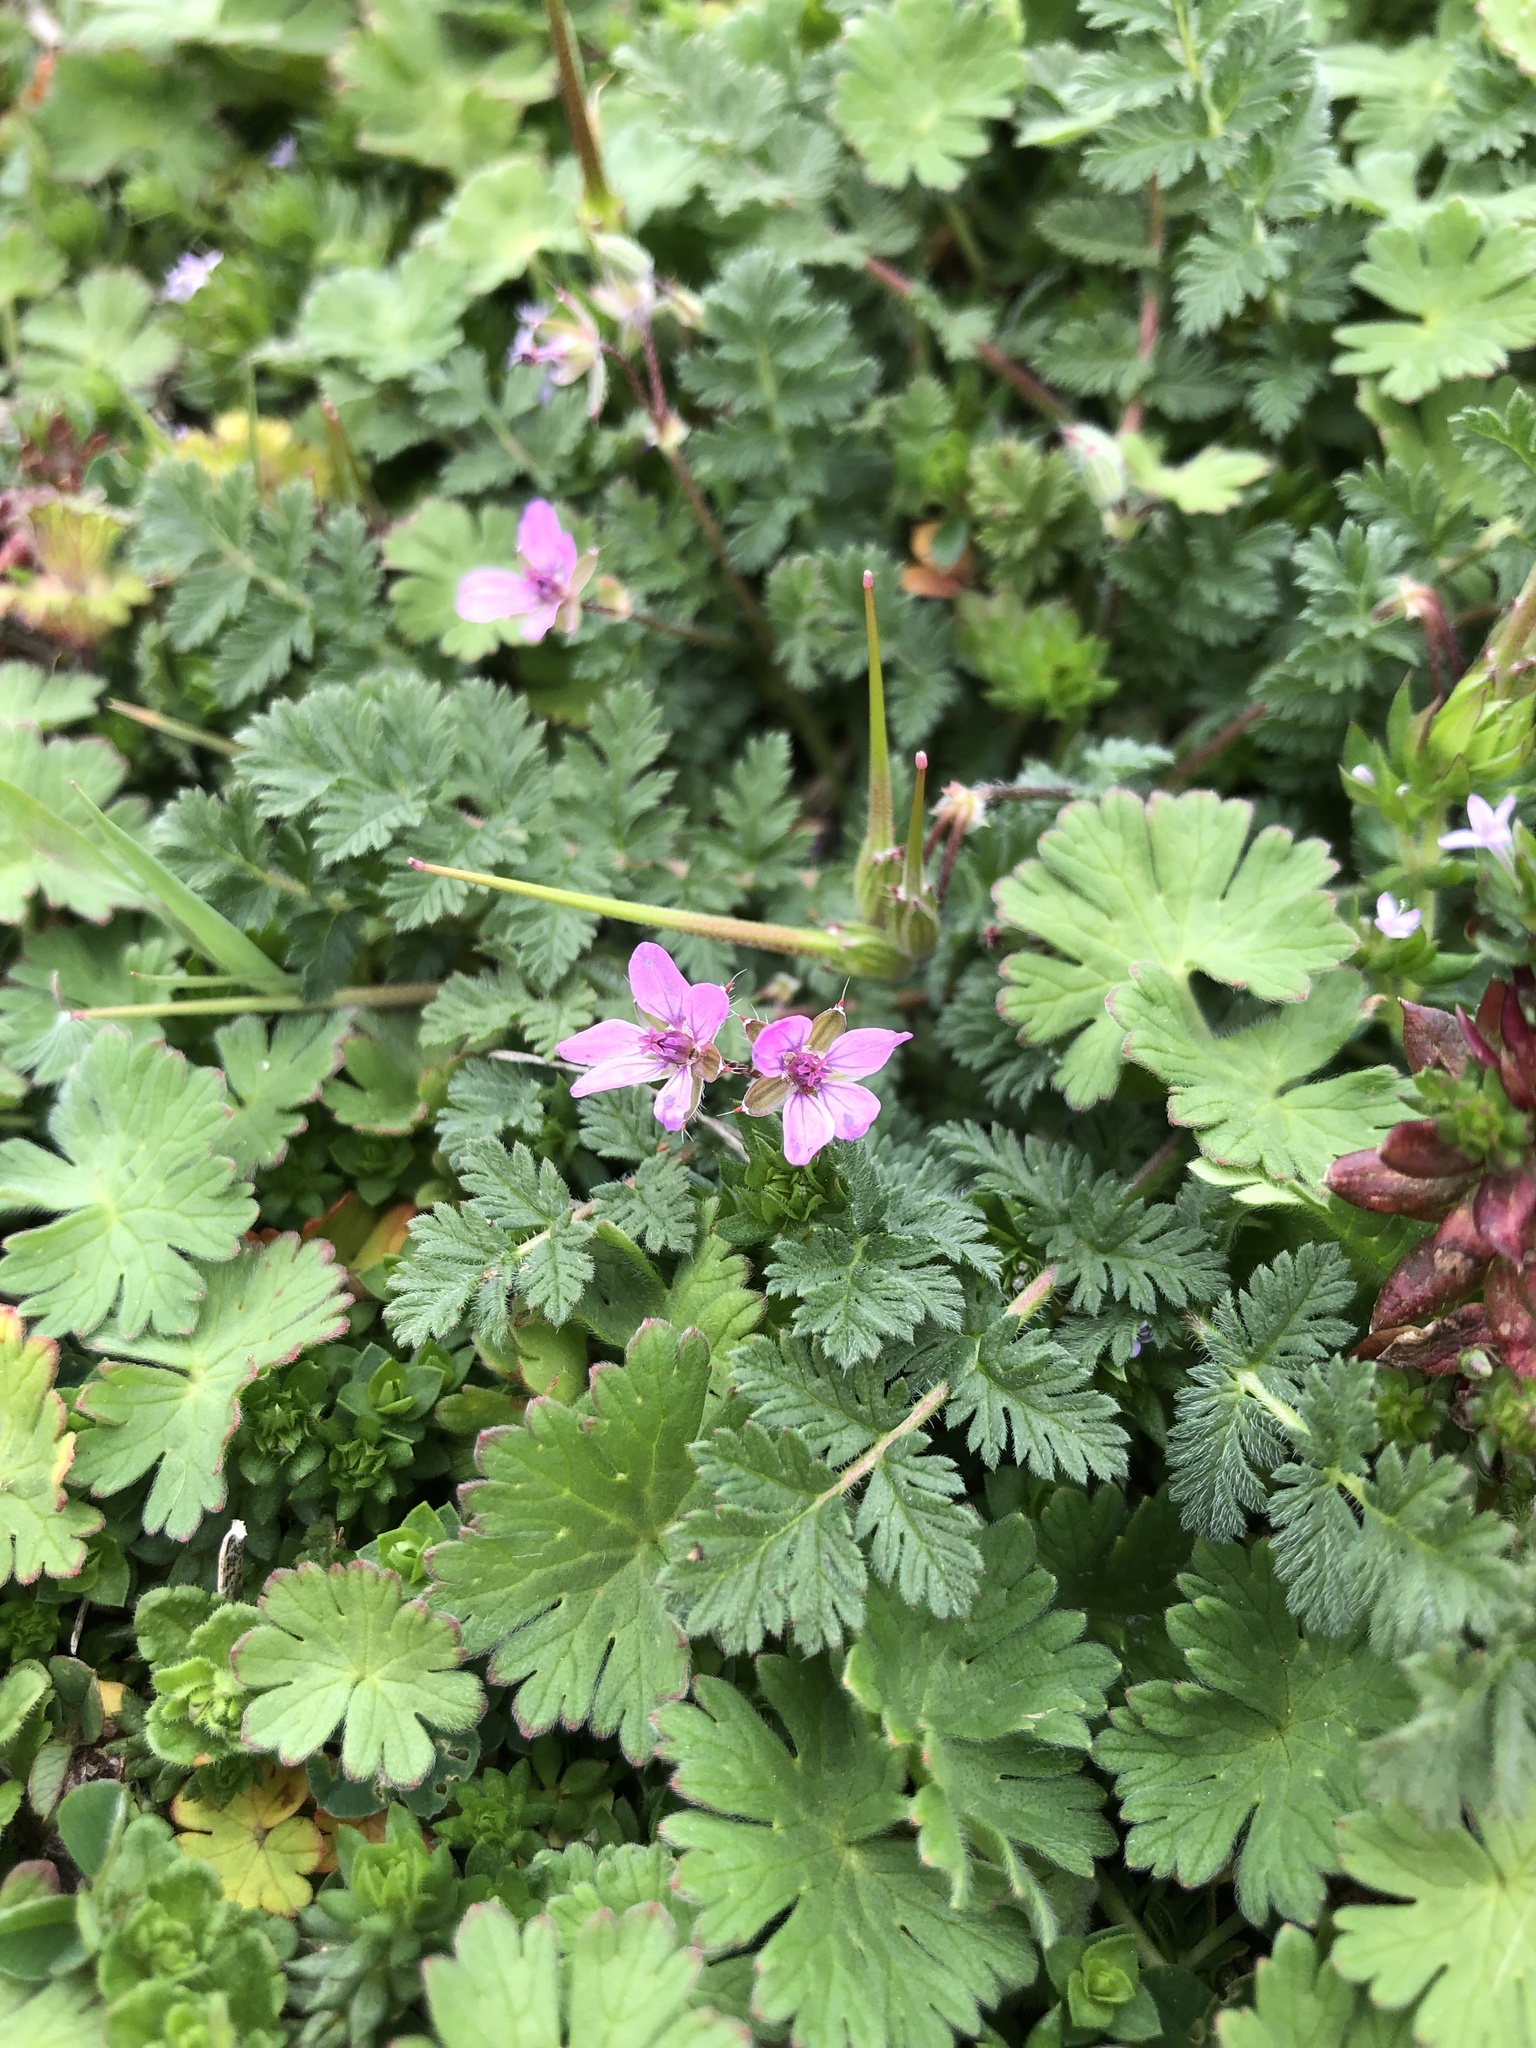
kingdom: Plantae
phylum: Tracheophyta
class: Magnoliopsida
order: Geraniales
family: Geraniaceae
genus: Erodium
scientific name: Erodium cicutarium
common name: Common stork's-bill
